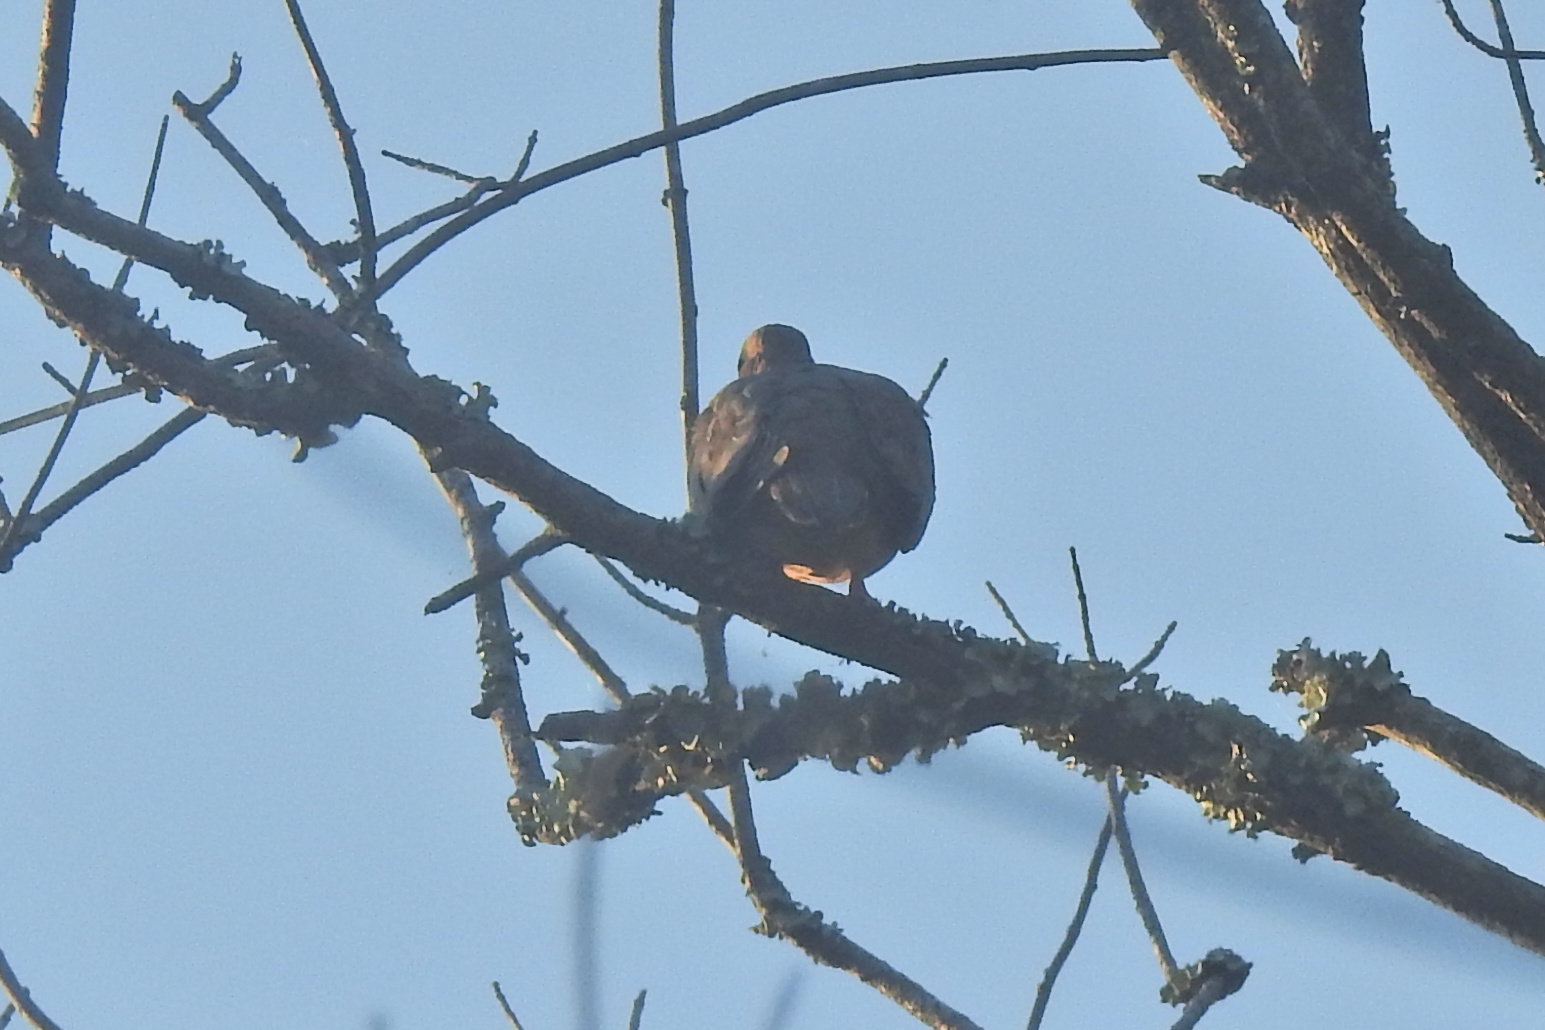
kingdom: Animalia
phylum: Chordata
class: Aves
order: Columbiformes
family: Columbidae
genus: Zenaida
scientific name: Zenaida macroura
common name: Mourning dove
